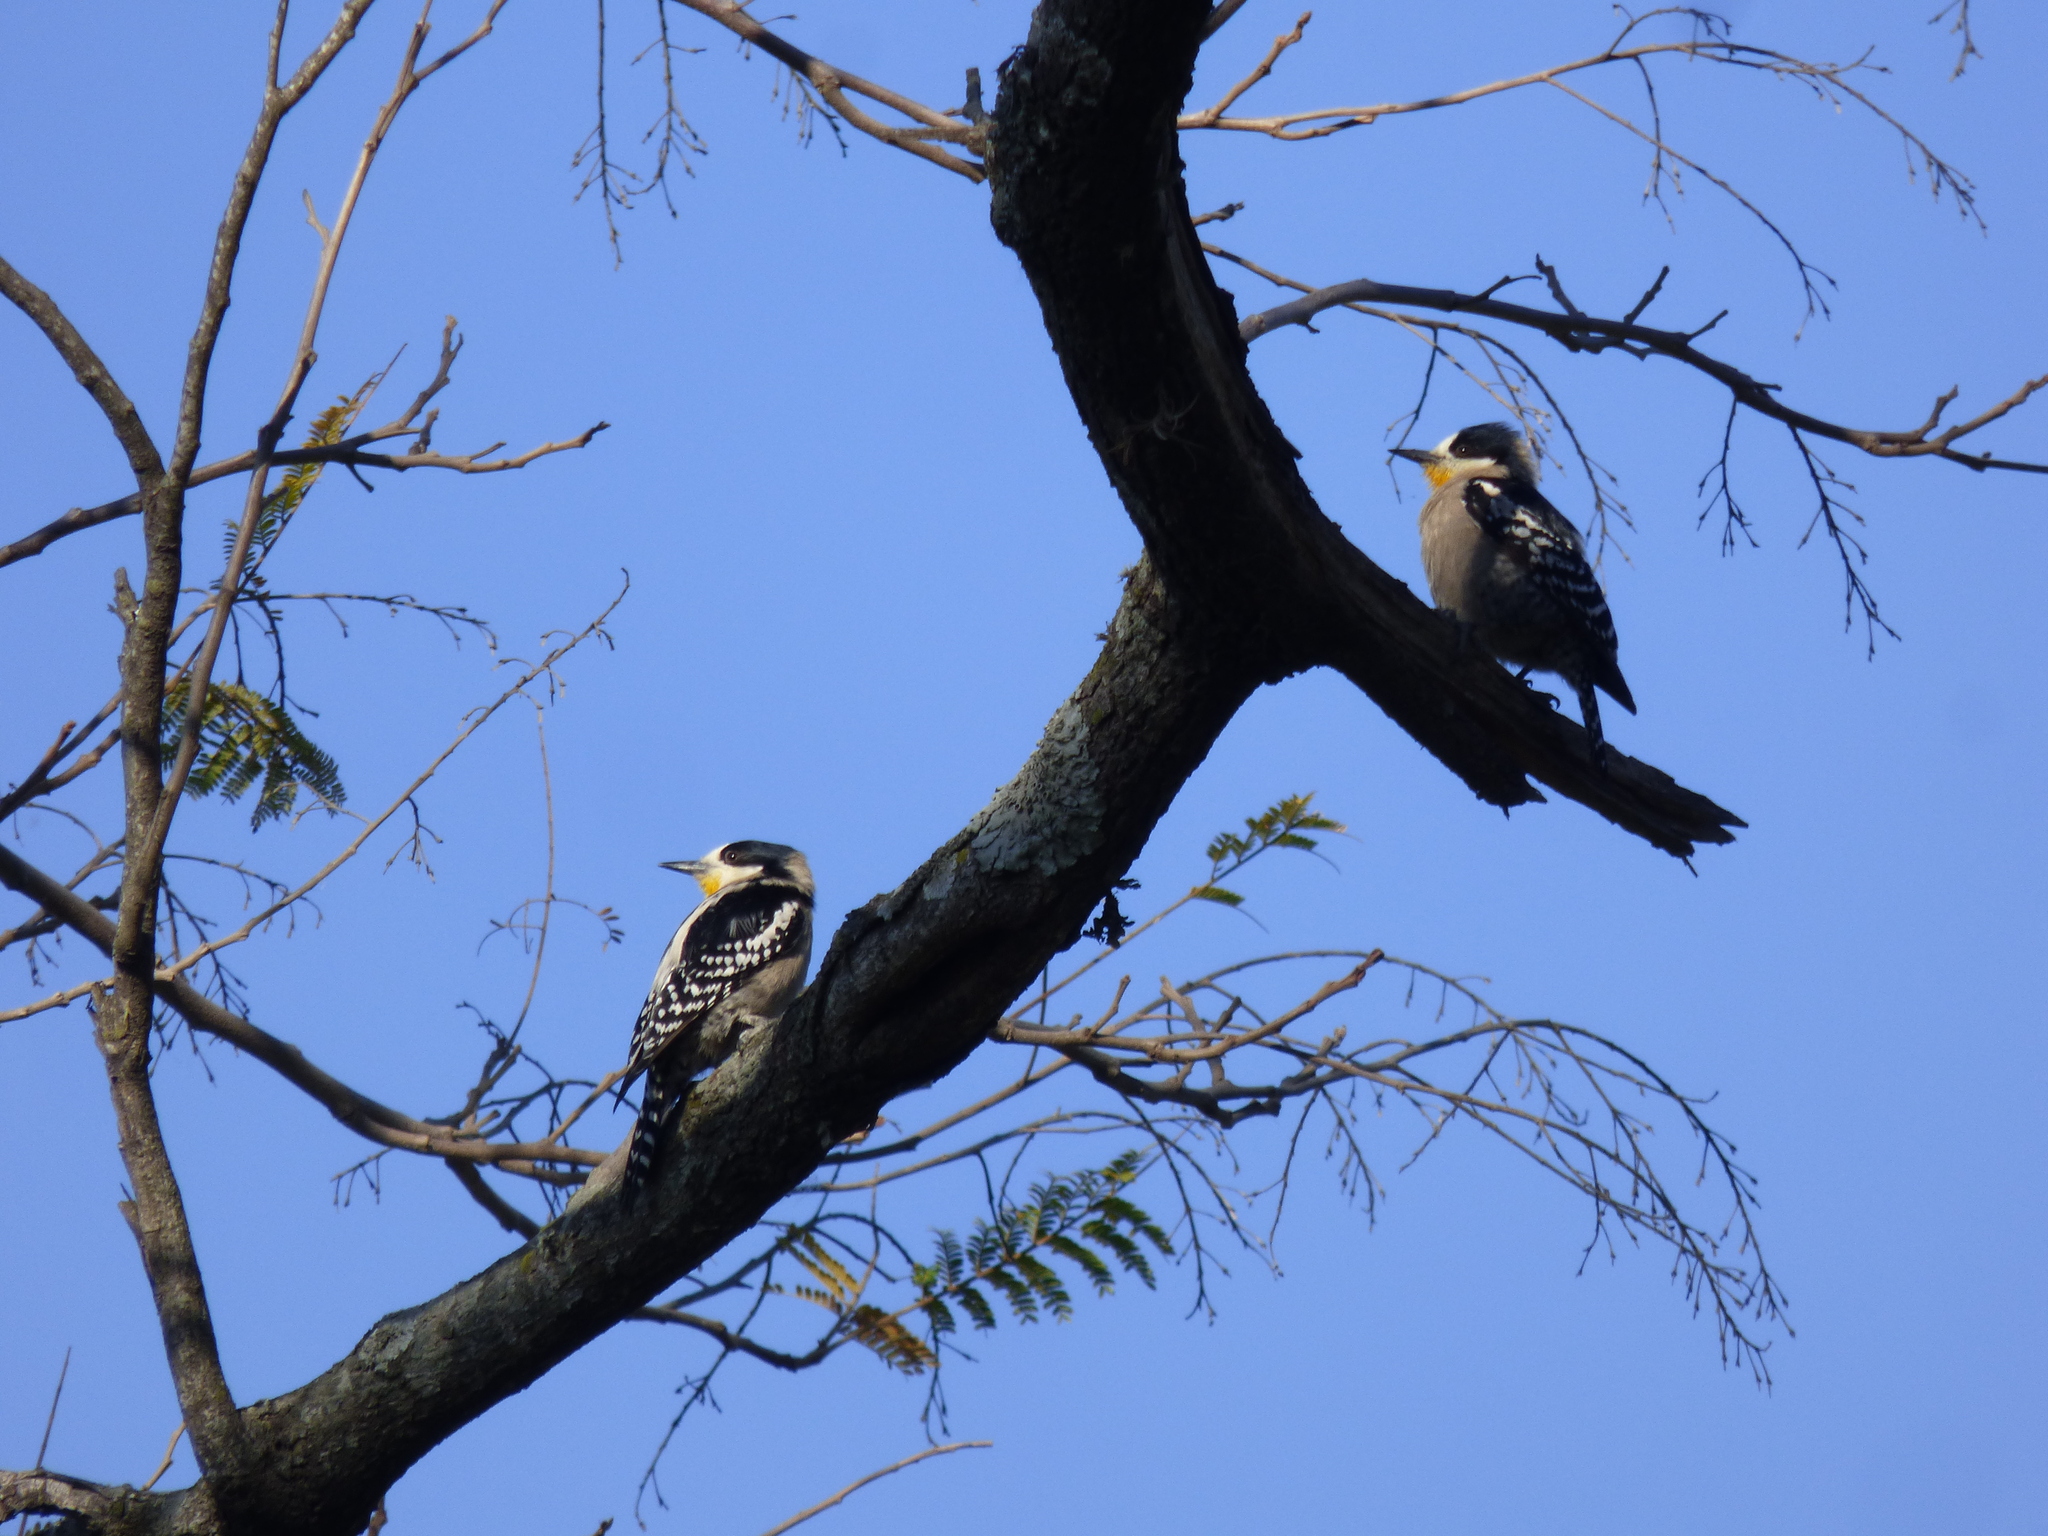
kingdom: Animalia
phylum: Chordata
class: Aves
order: Piciformes
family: Picidae
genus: Melanerpes
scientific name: Melanerpes cactorum
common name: White-fronted woodpecker
